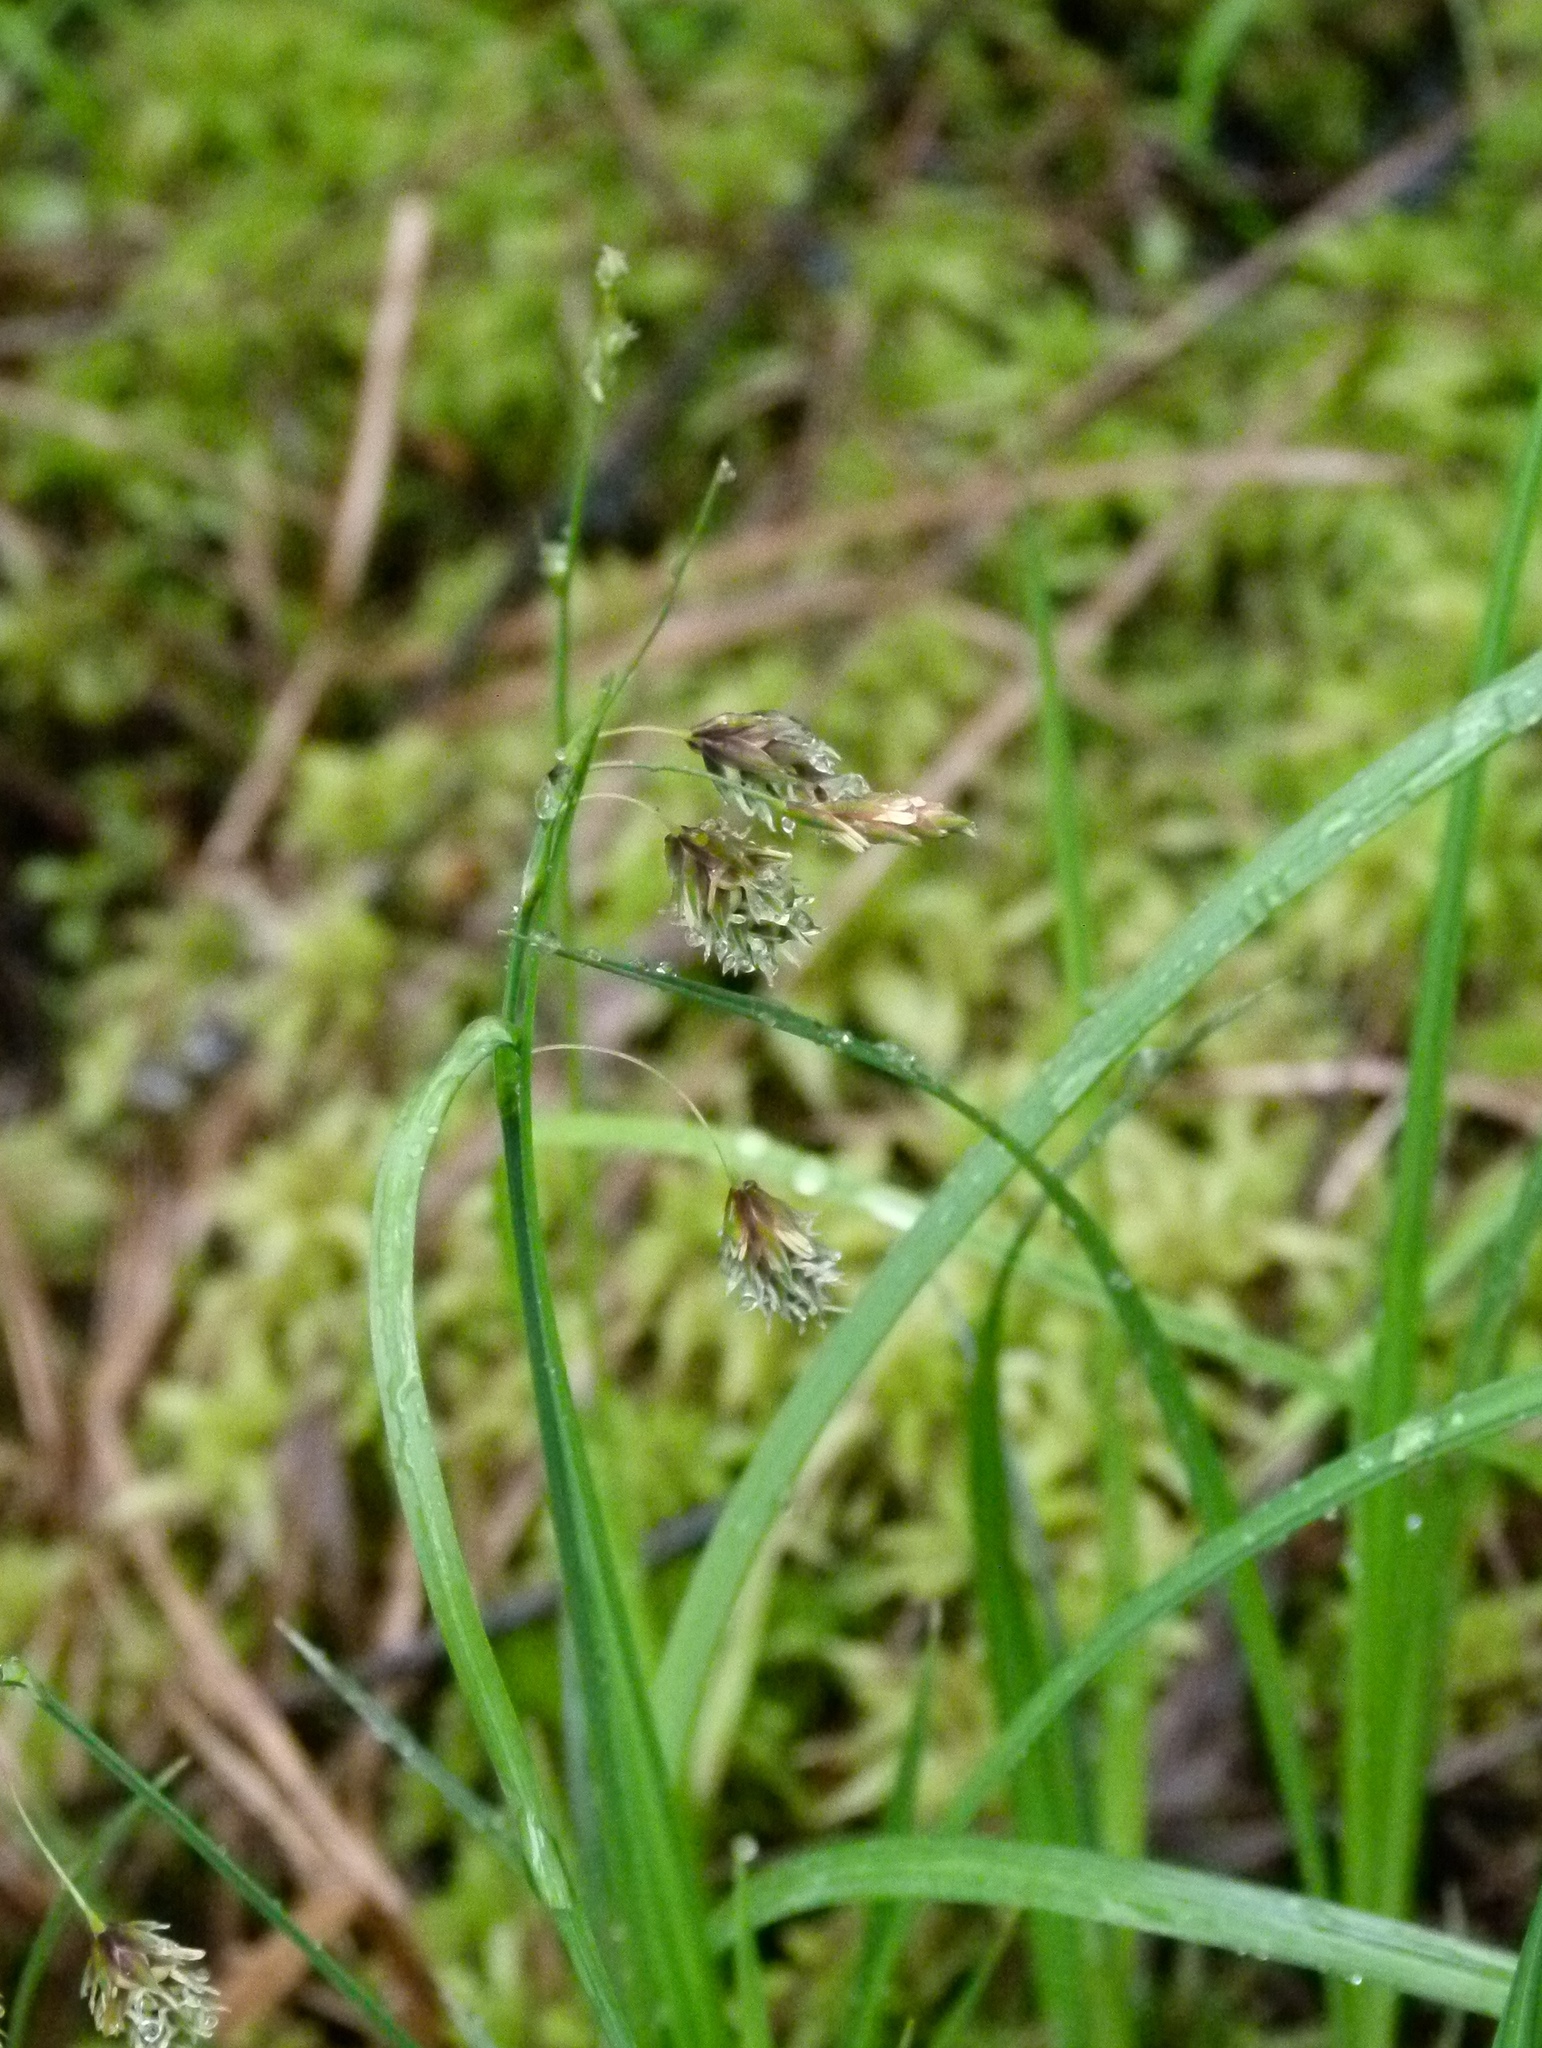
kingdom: Plantae
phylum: Tracheophyta
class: Liliopsida
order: Poales
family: Cyperaceae
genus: Carex
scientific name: Carex magellanica
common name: Bog sedge
